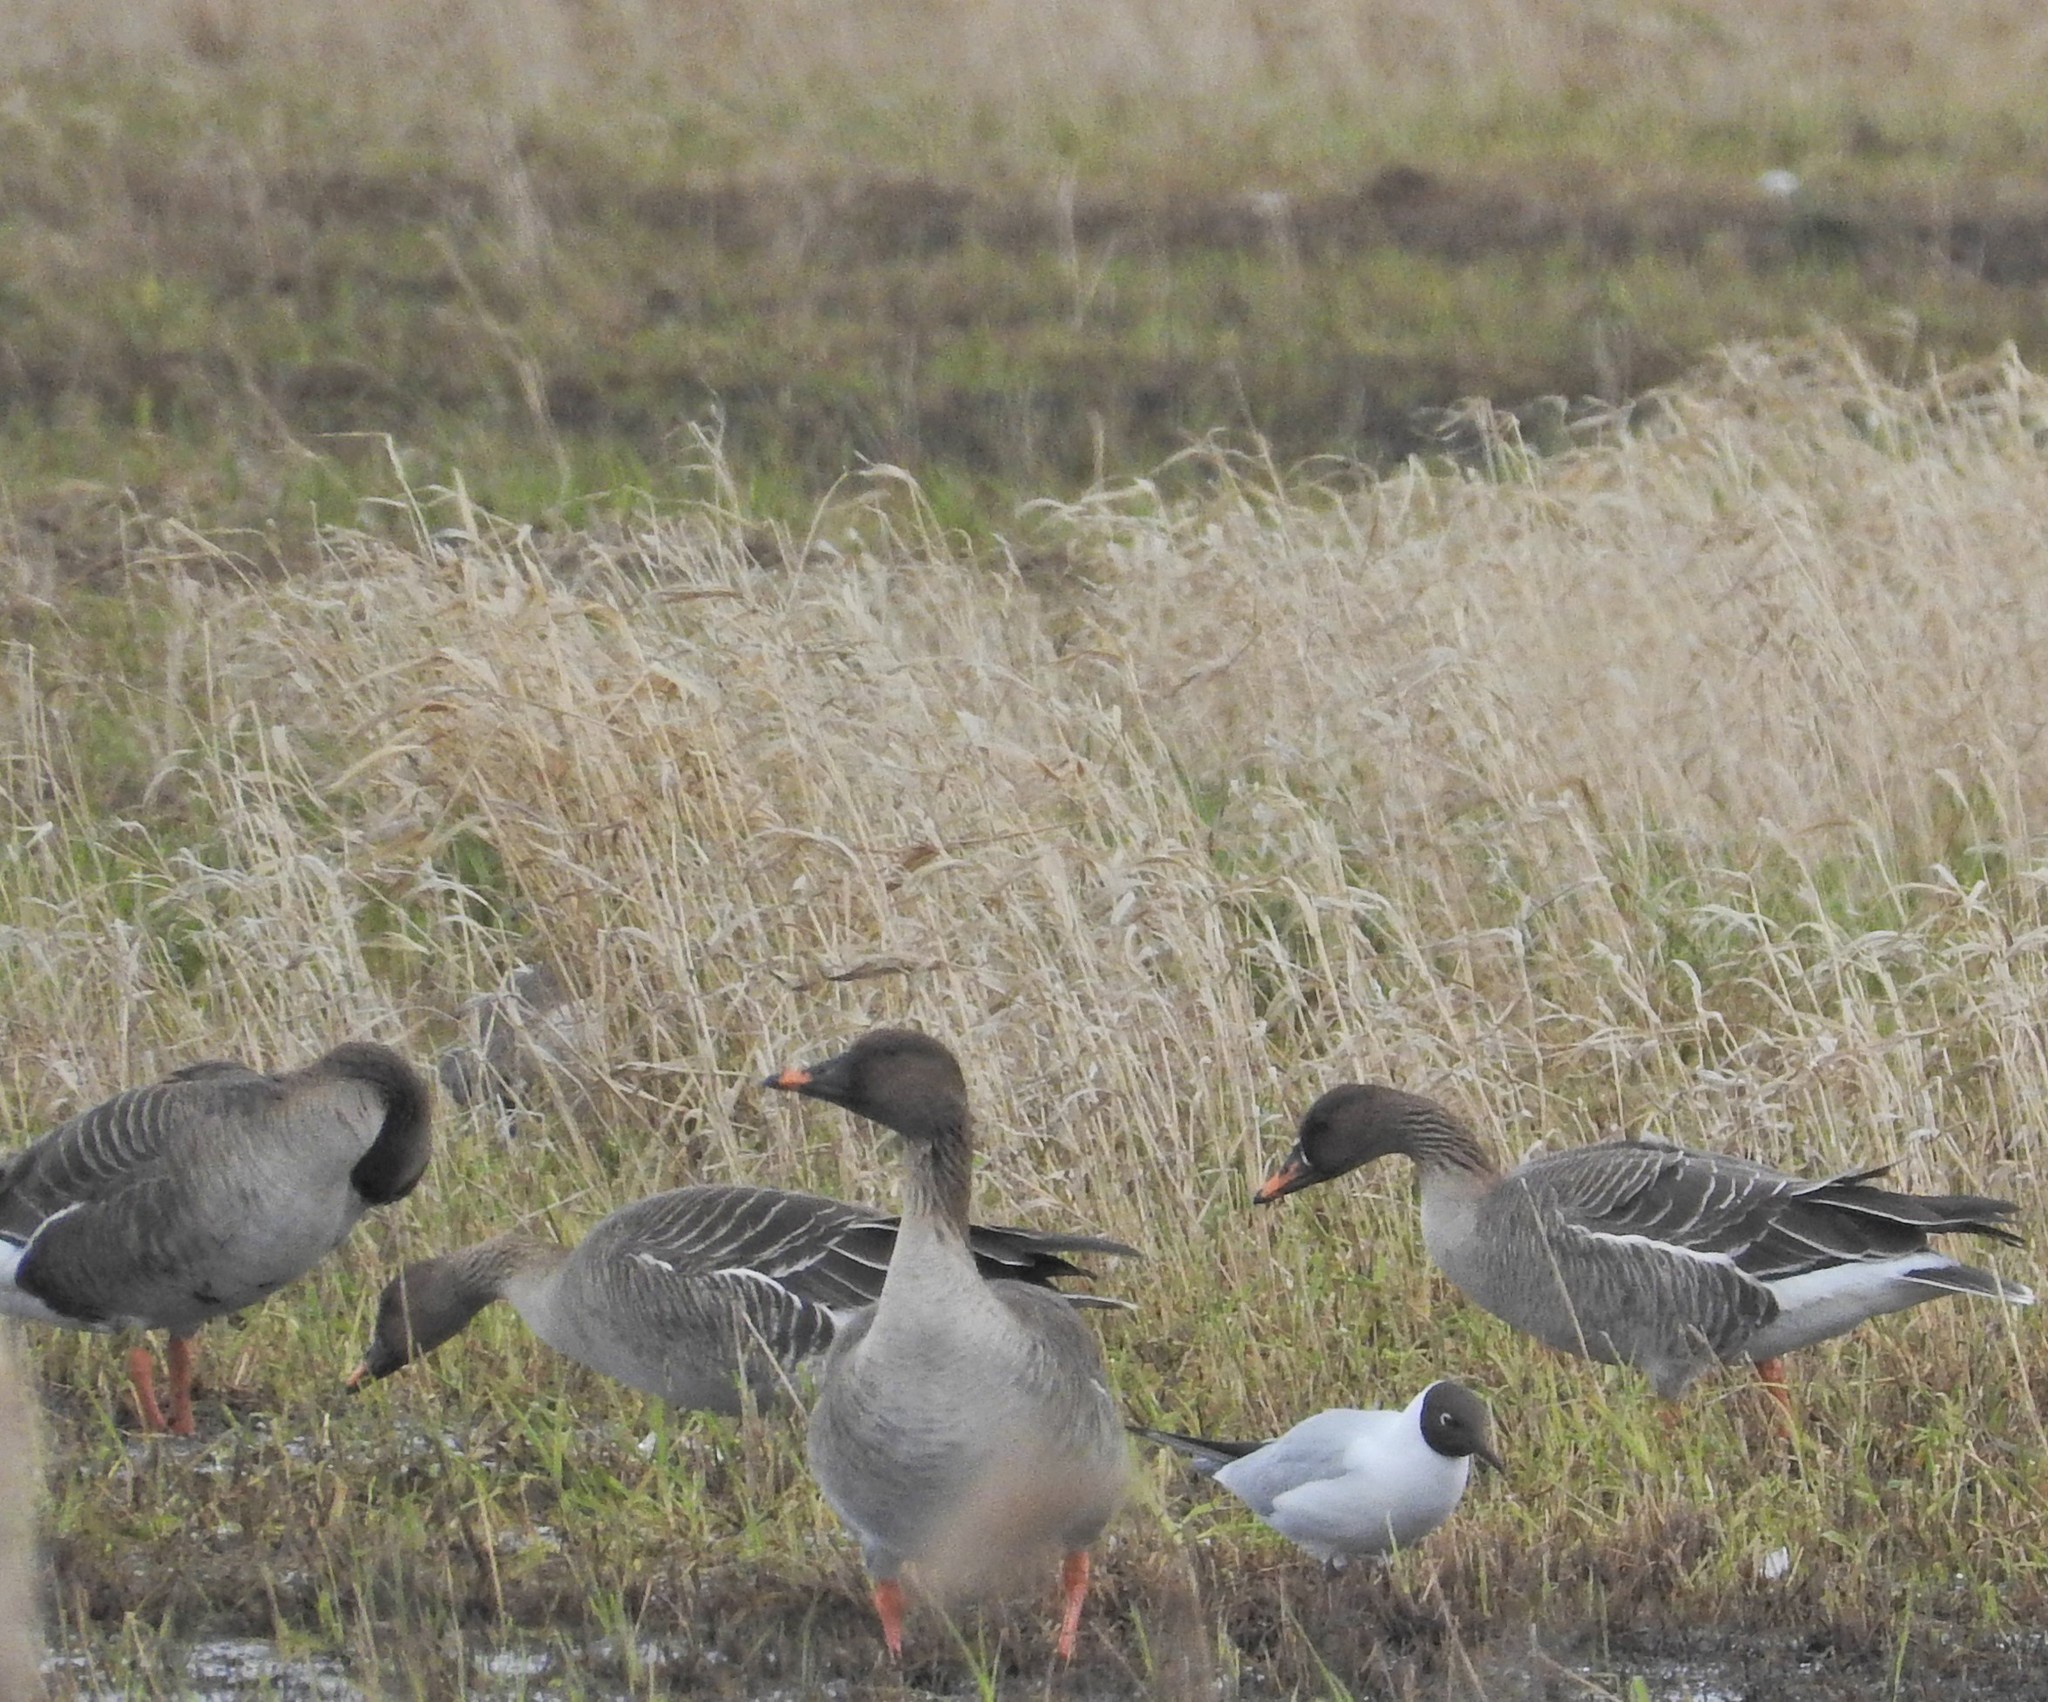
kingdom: Animalia
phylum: Chordata
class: Aves
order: Charadriiformes
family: Laridae
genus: Chroicocephalus
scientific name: Chroicocephalus ridibundus
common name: Black-headed gull
